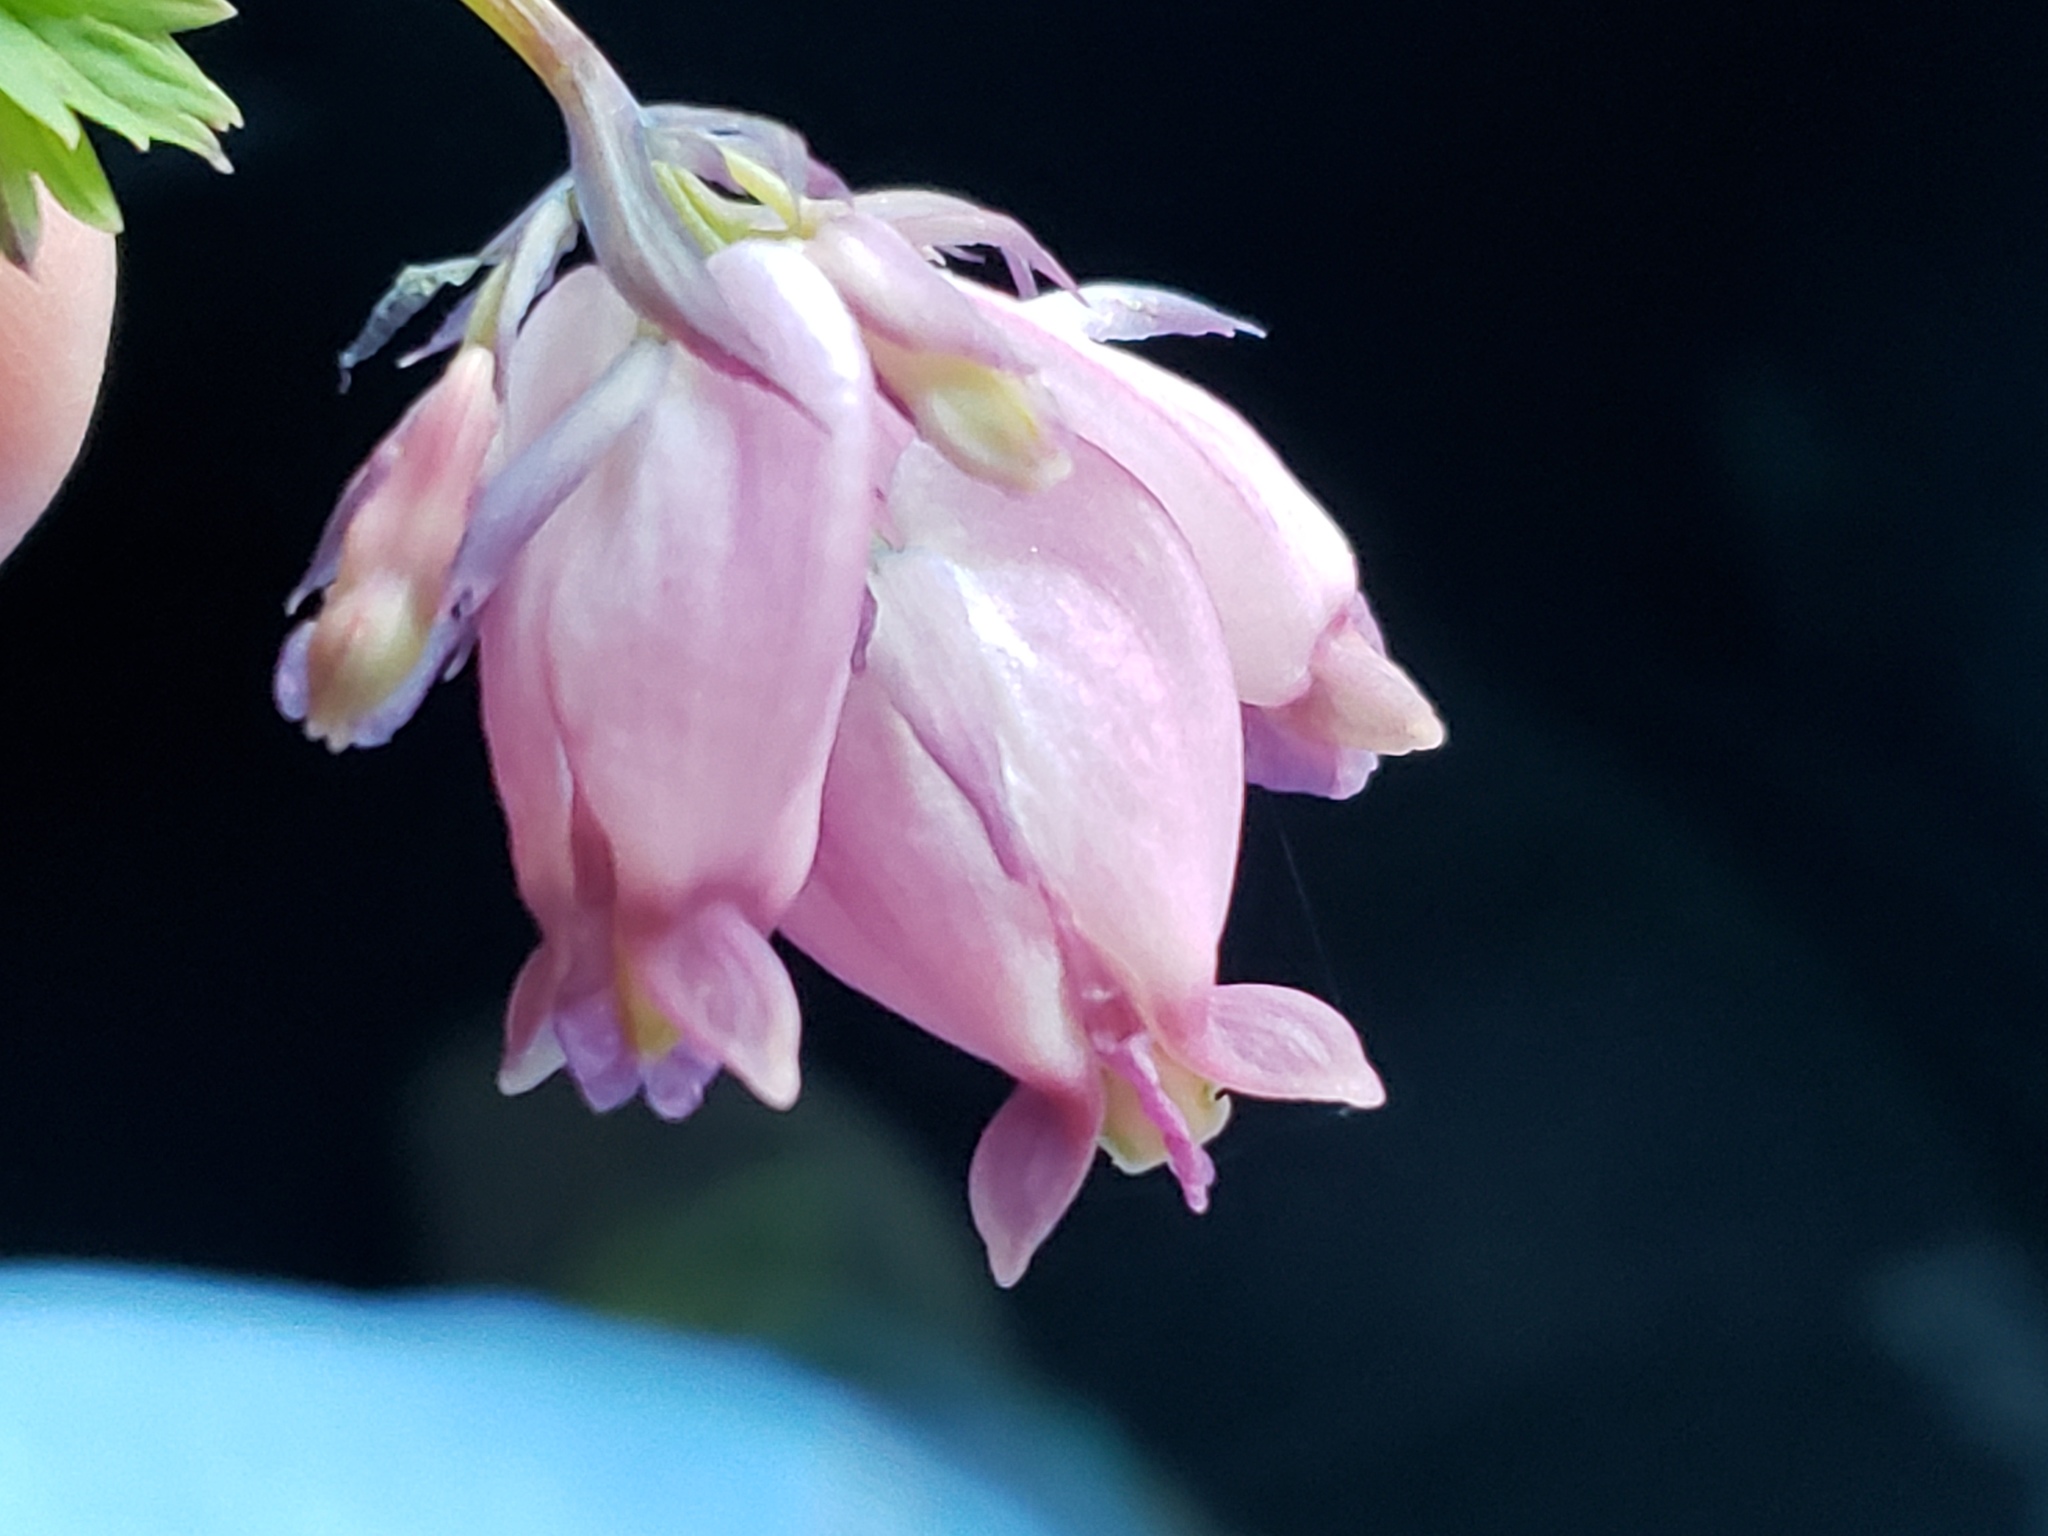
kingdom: Plantae
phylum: Tracheophyta
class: Magnoliopsida
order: Ranunculales
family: Papaveraceae
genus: Dicentra
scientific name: Dicentra formosa
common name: Bleeding-heart
